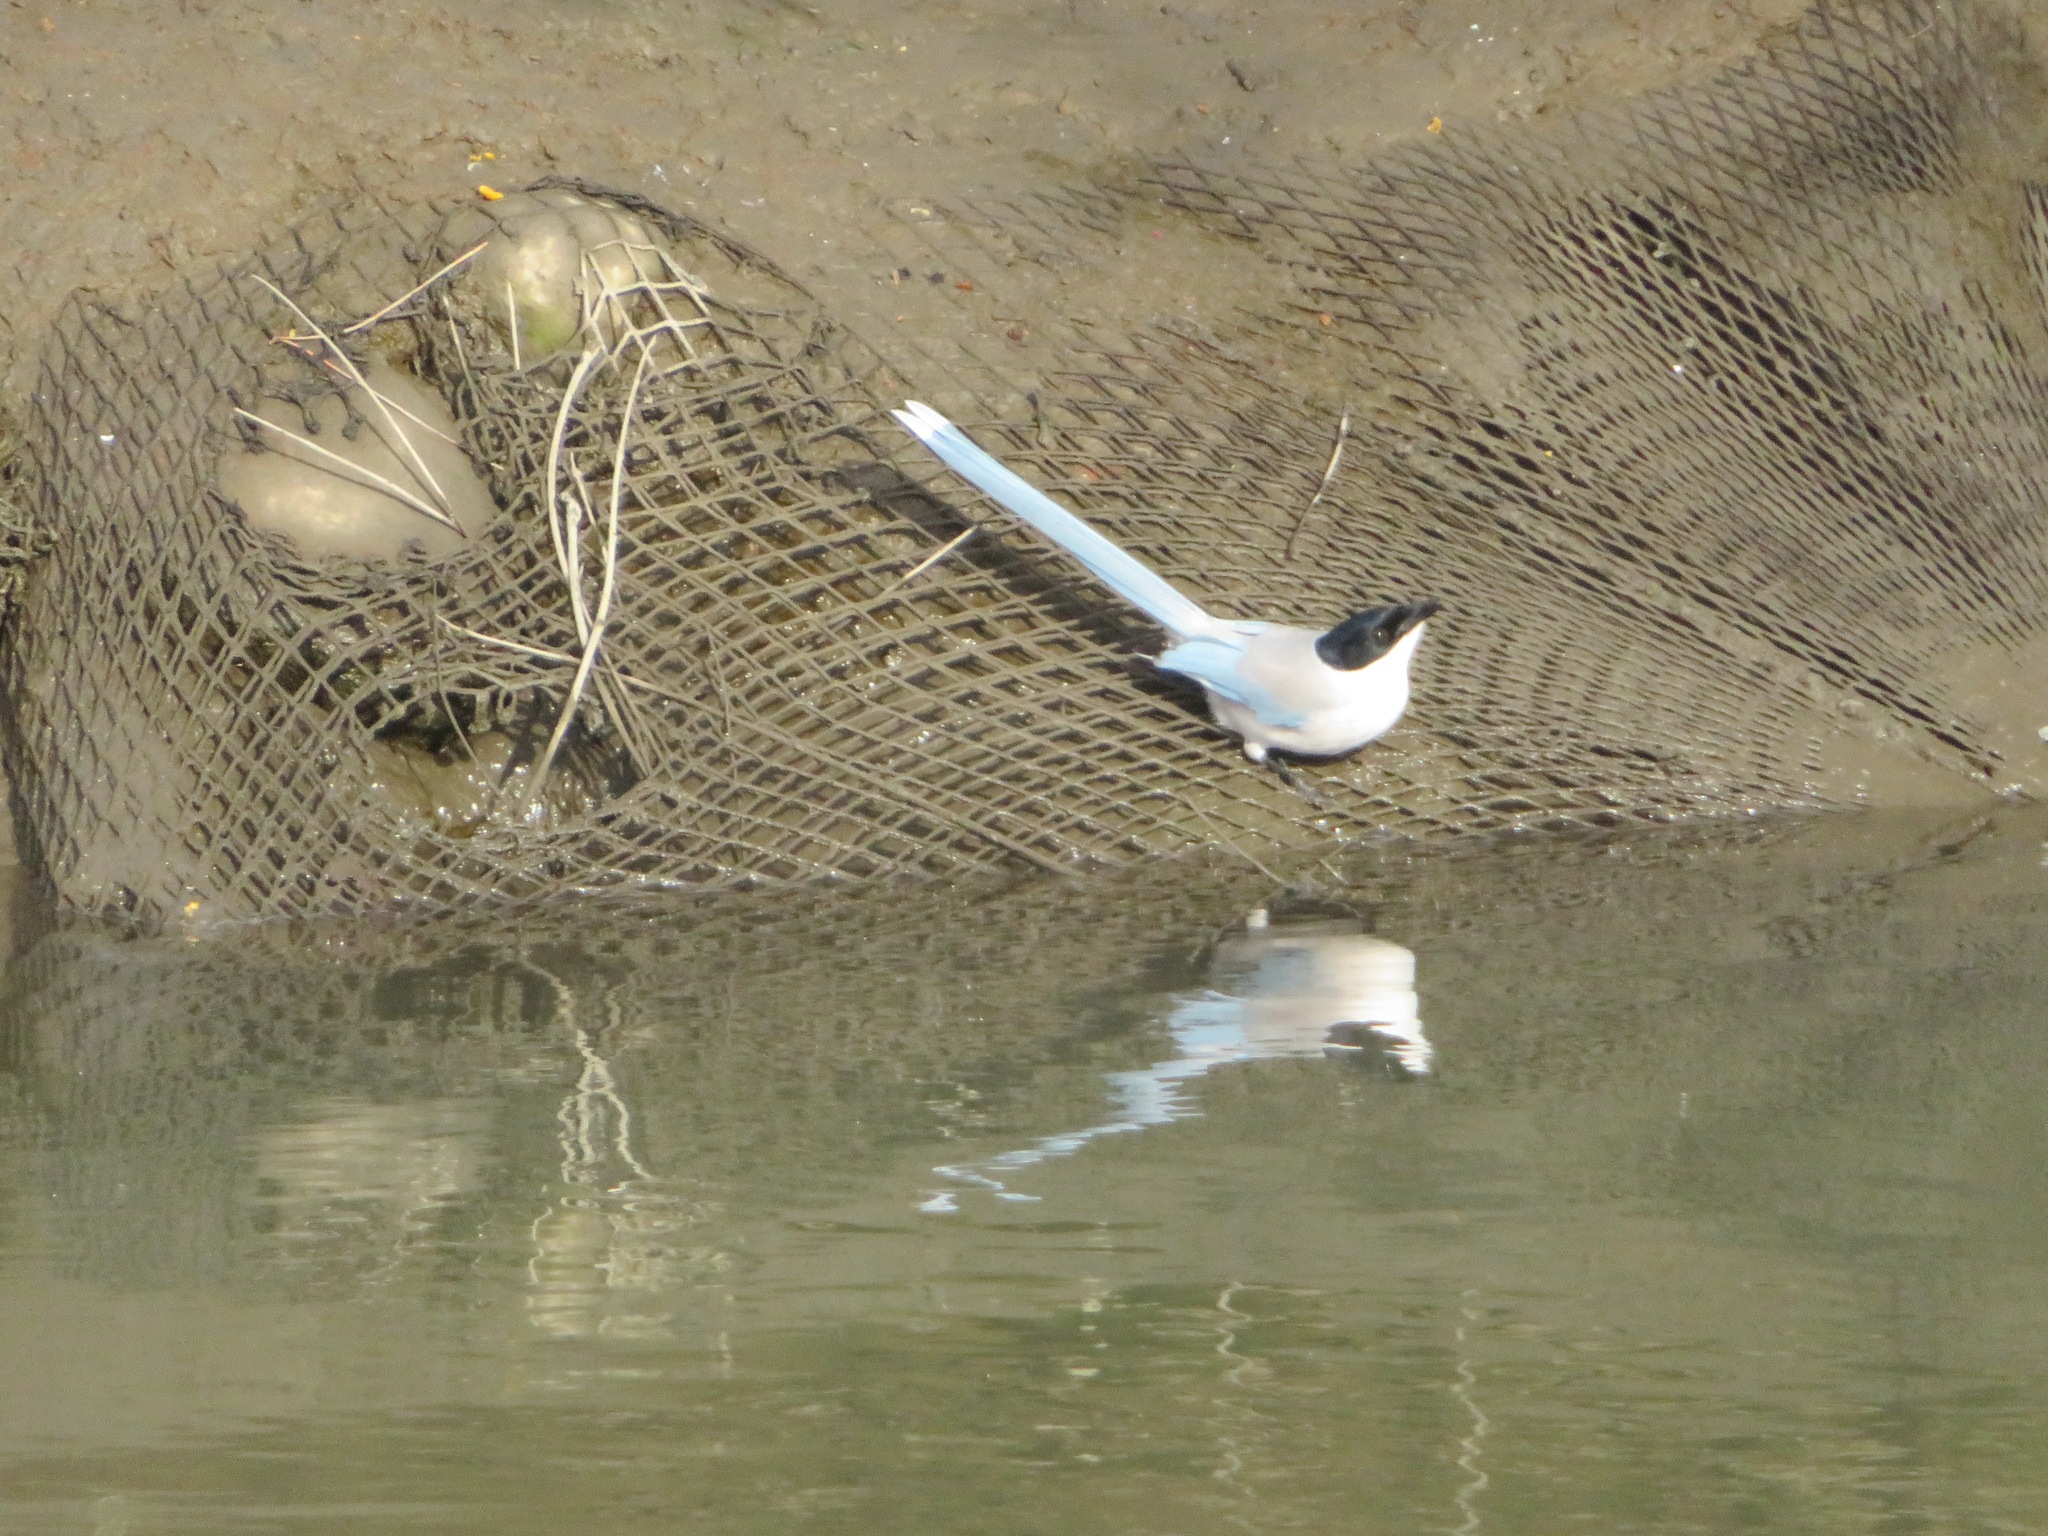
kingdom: Animalia
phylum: Chordata
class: Aves
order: Passeriformes
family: Corvidae
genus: Cyanopica
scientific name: Cyanopica cyanus
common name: Azure-winged magpie
